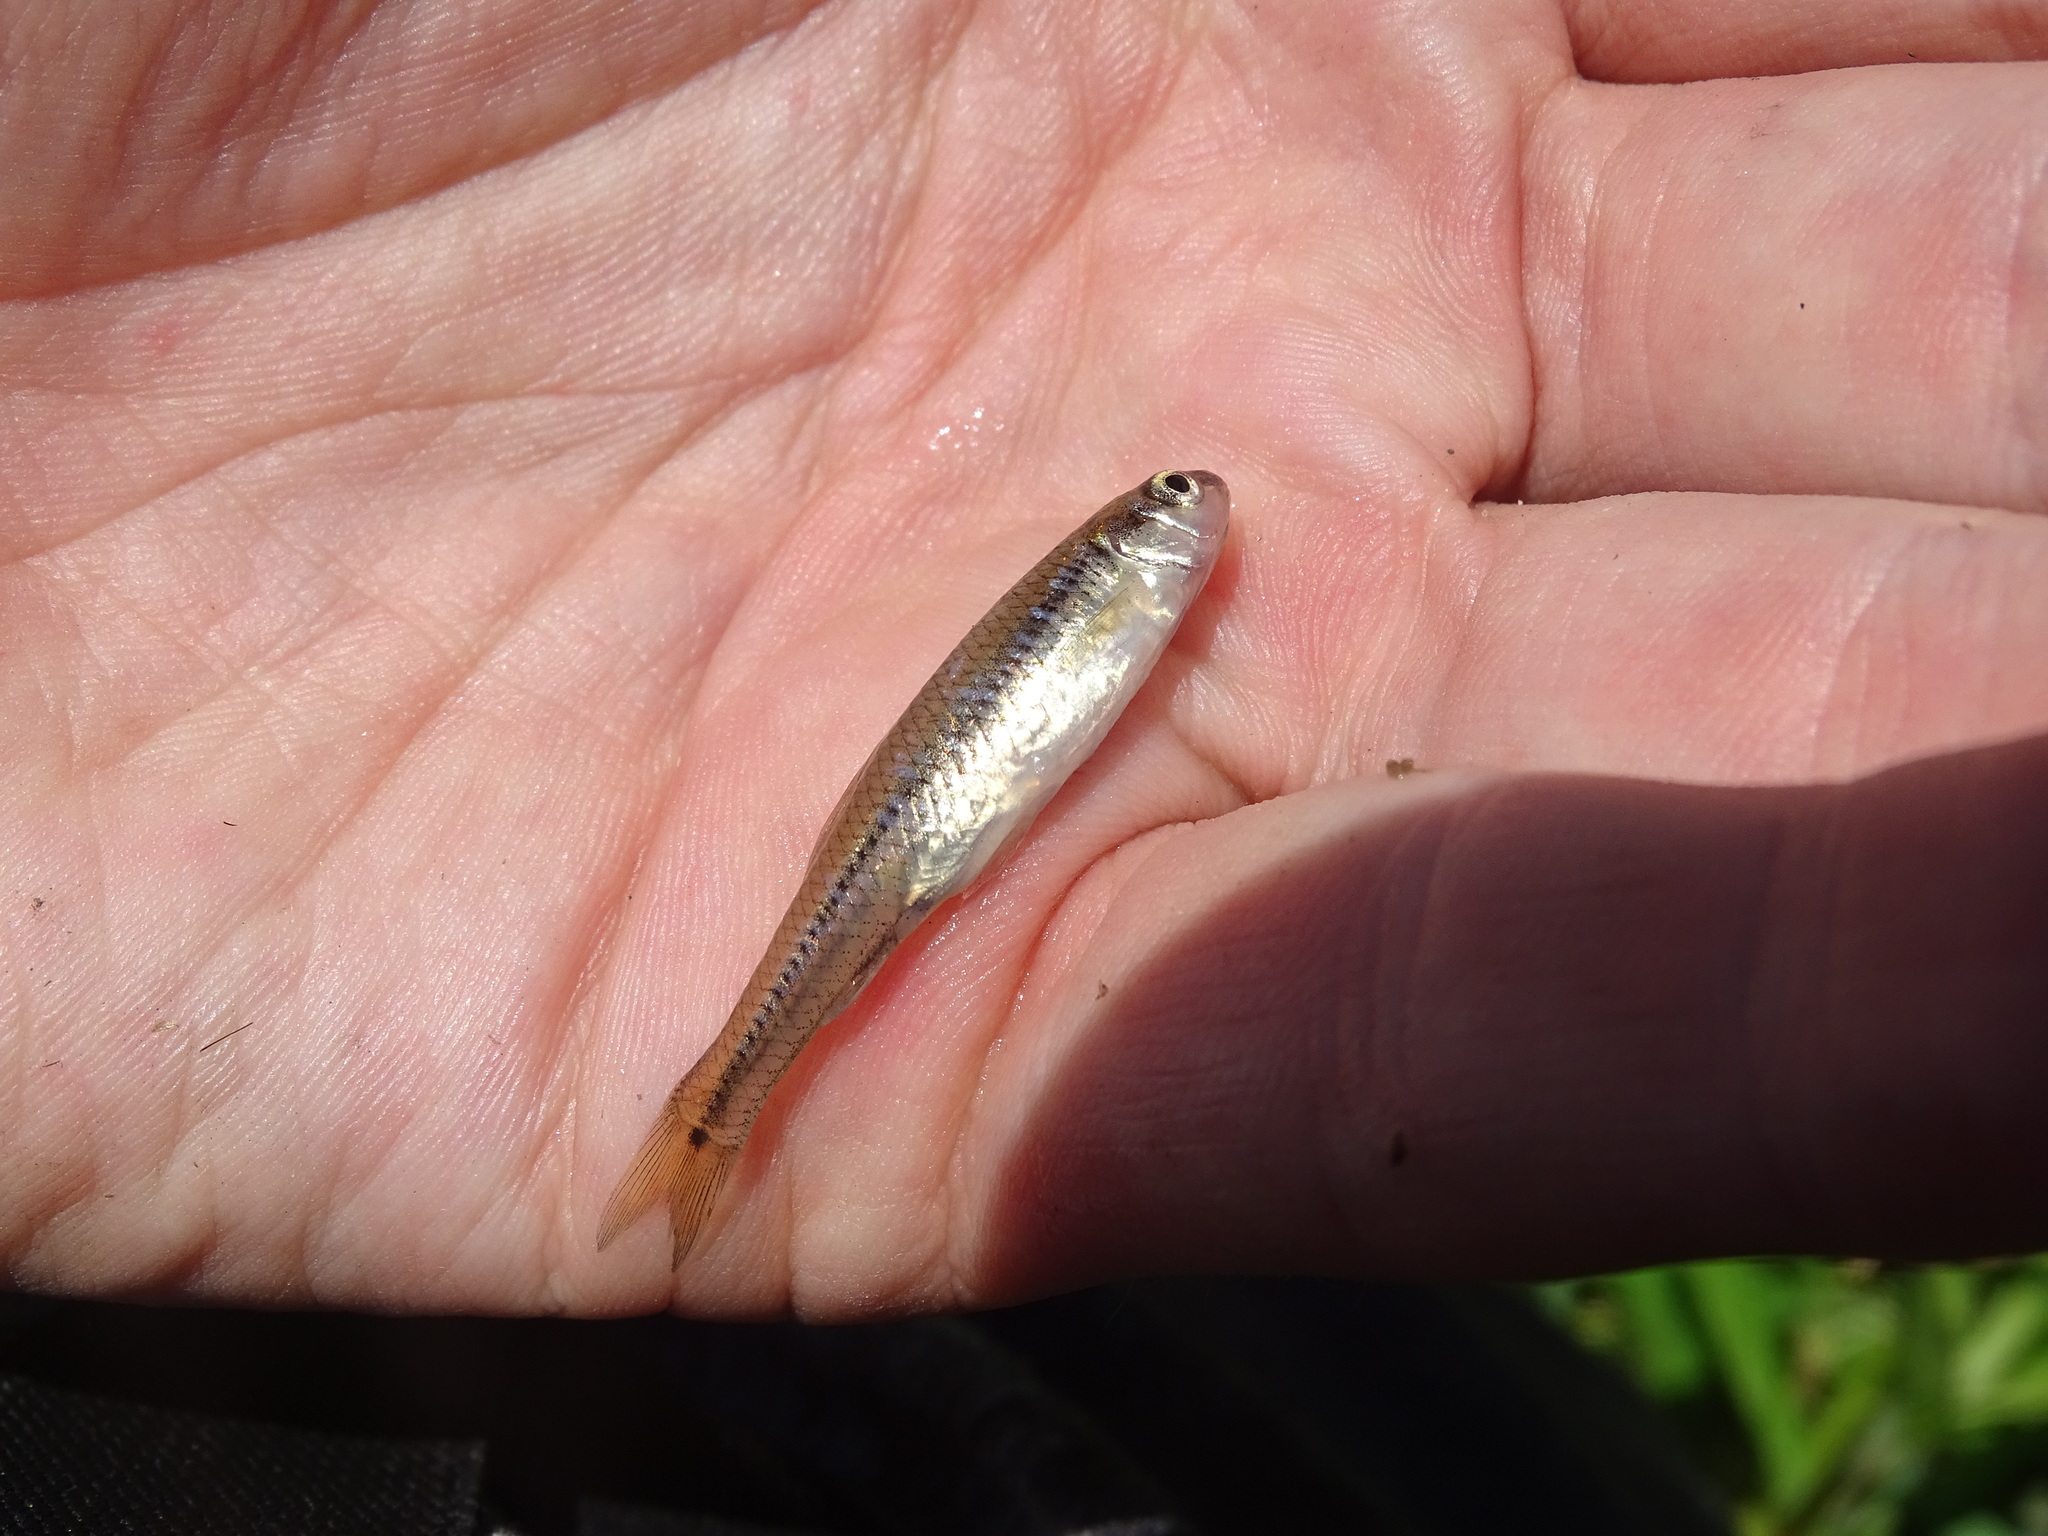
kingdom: Animalia
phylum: Chordata
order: Cypriniformes
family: Cyprinidae
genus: Pimephales
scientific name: Pimephales notatus
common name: Bluntnose minnow
